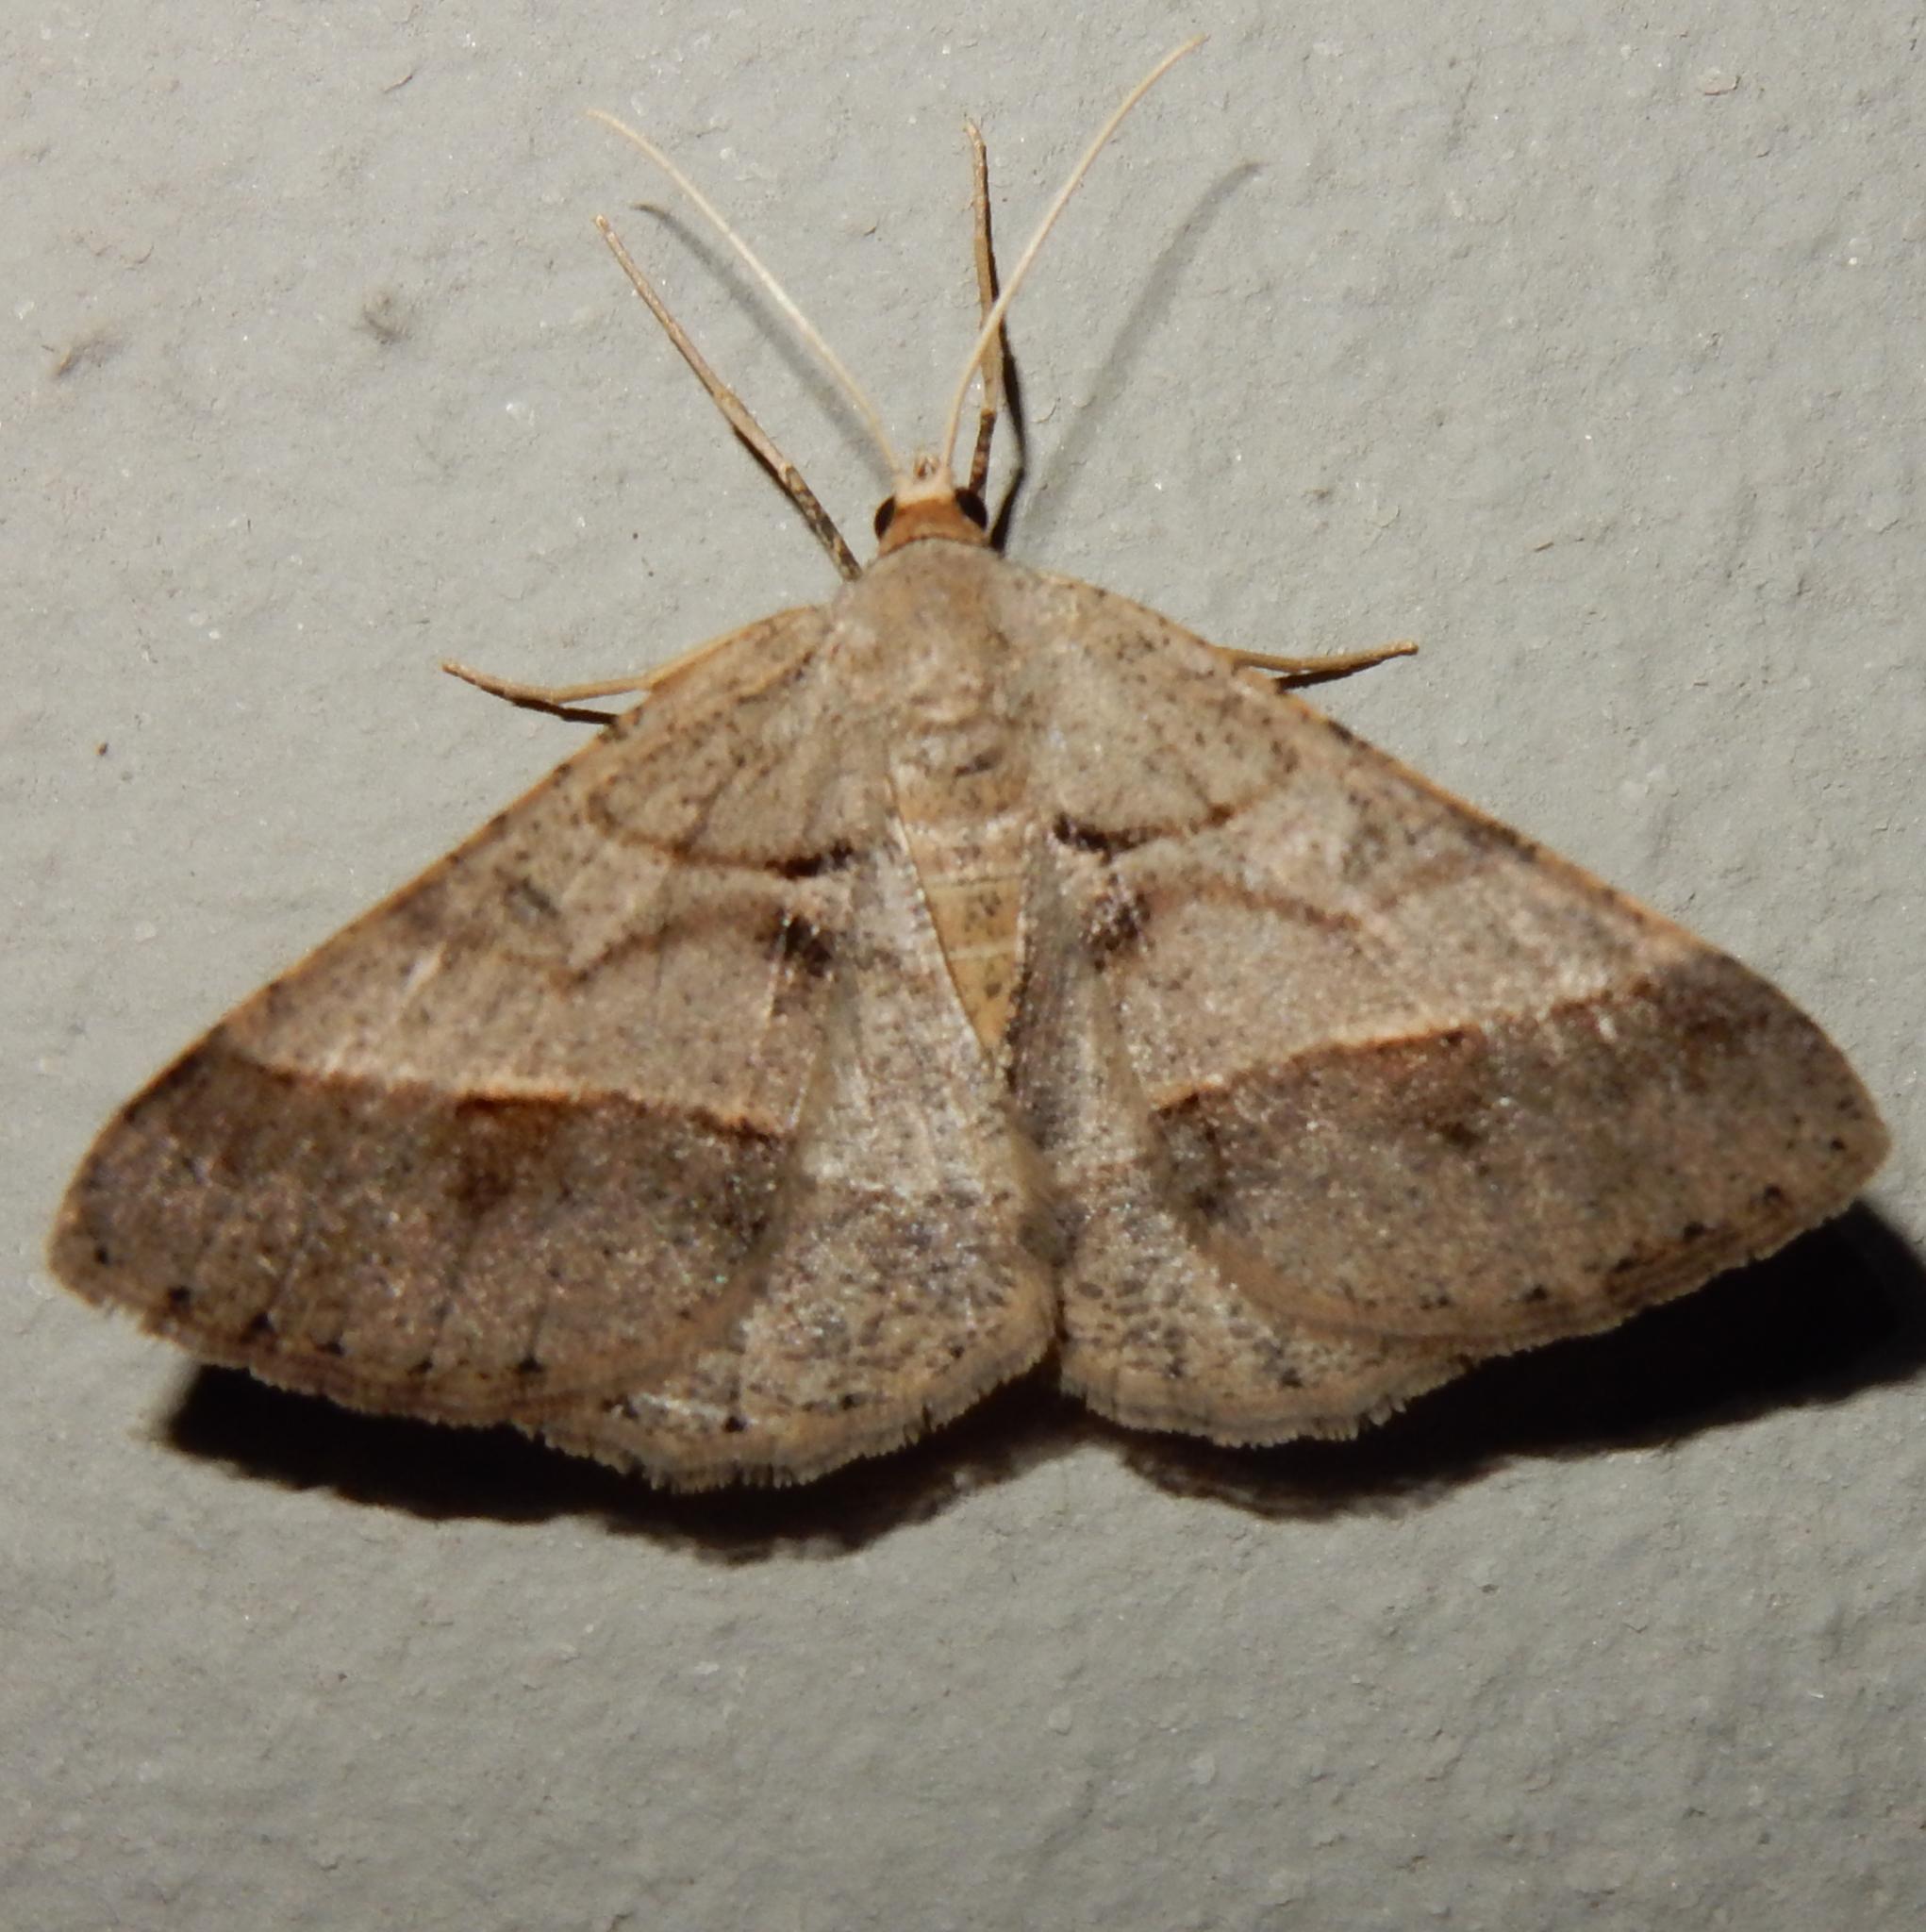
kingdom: Animalia
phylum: Arthropoda
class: Insecta
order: Lepidoptera
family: Geometridae
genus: Isturgia
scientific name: Isturgia spissata
